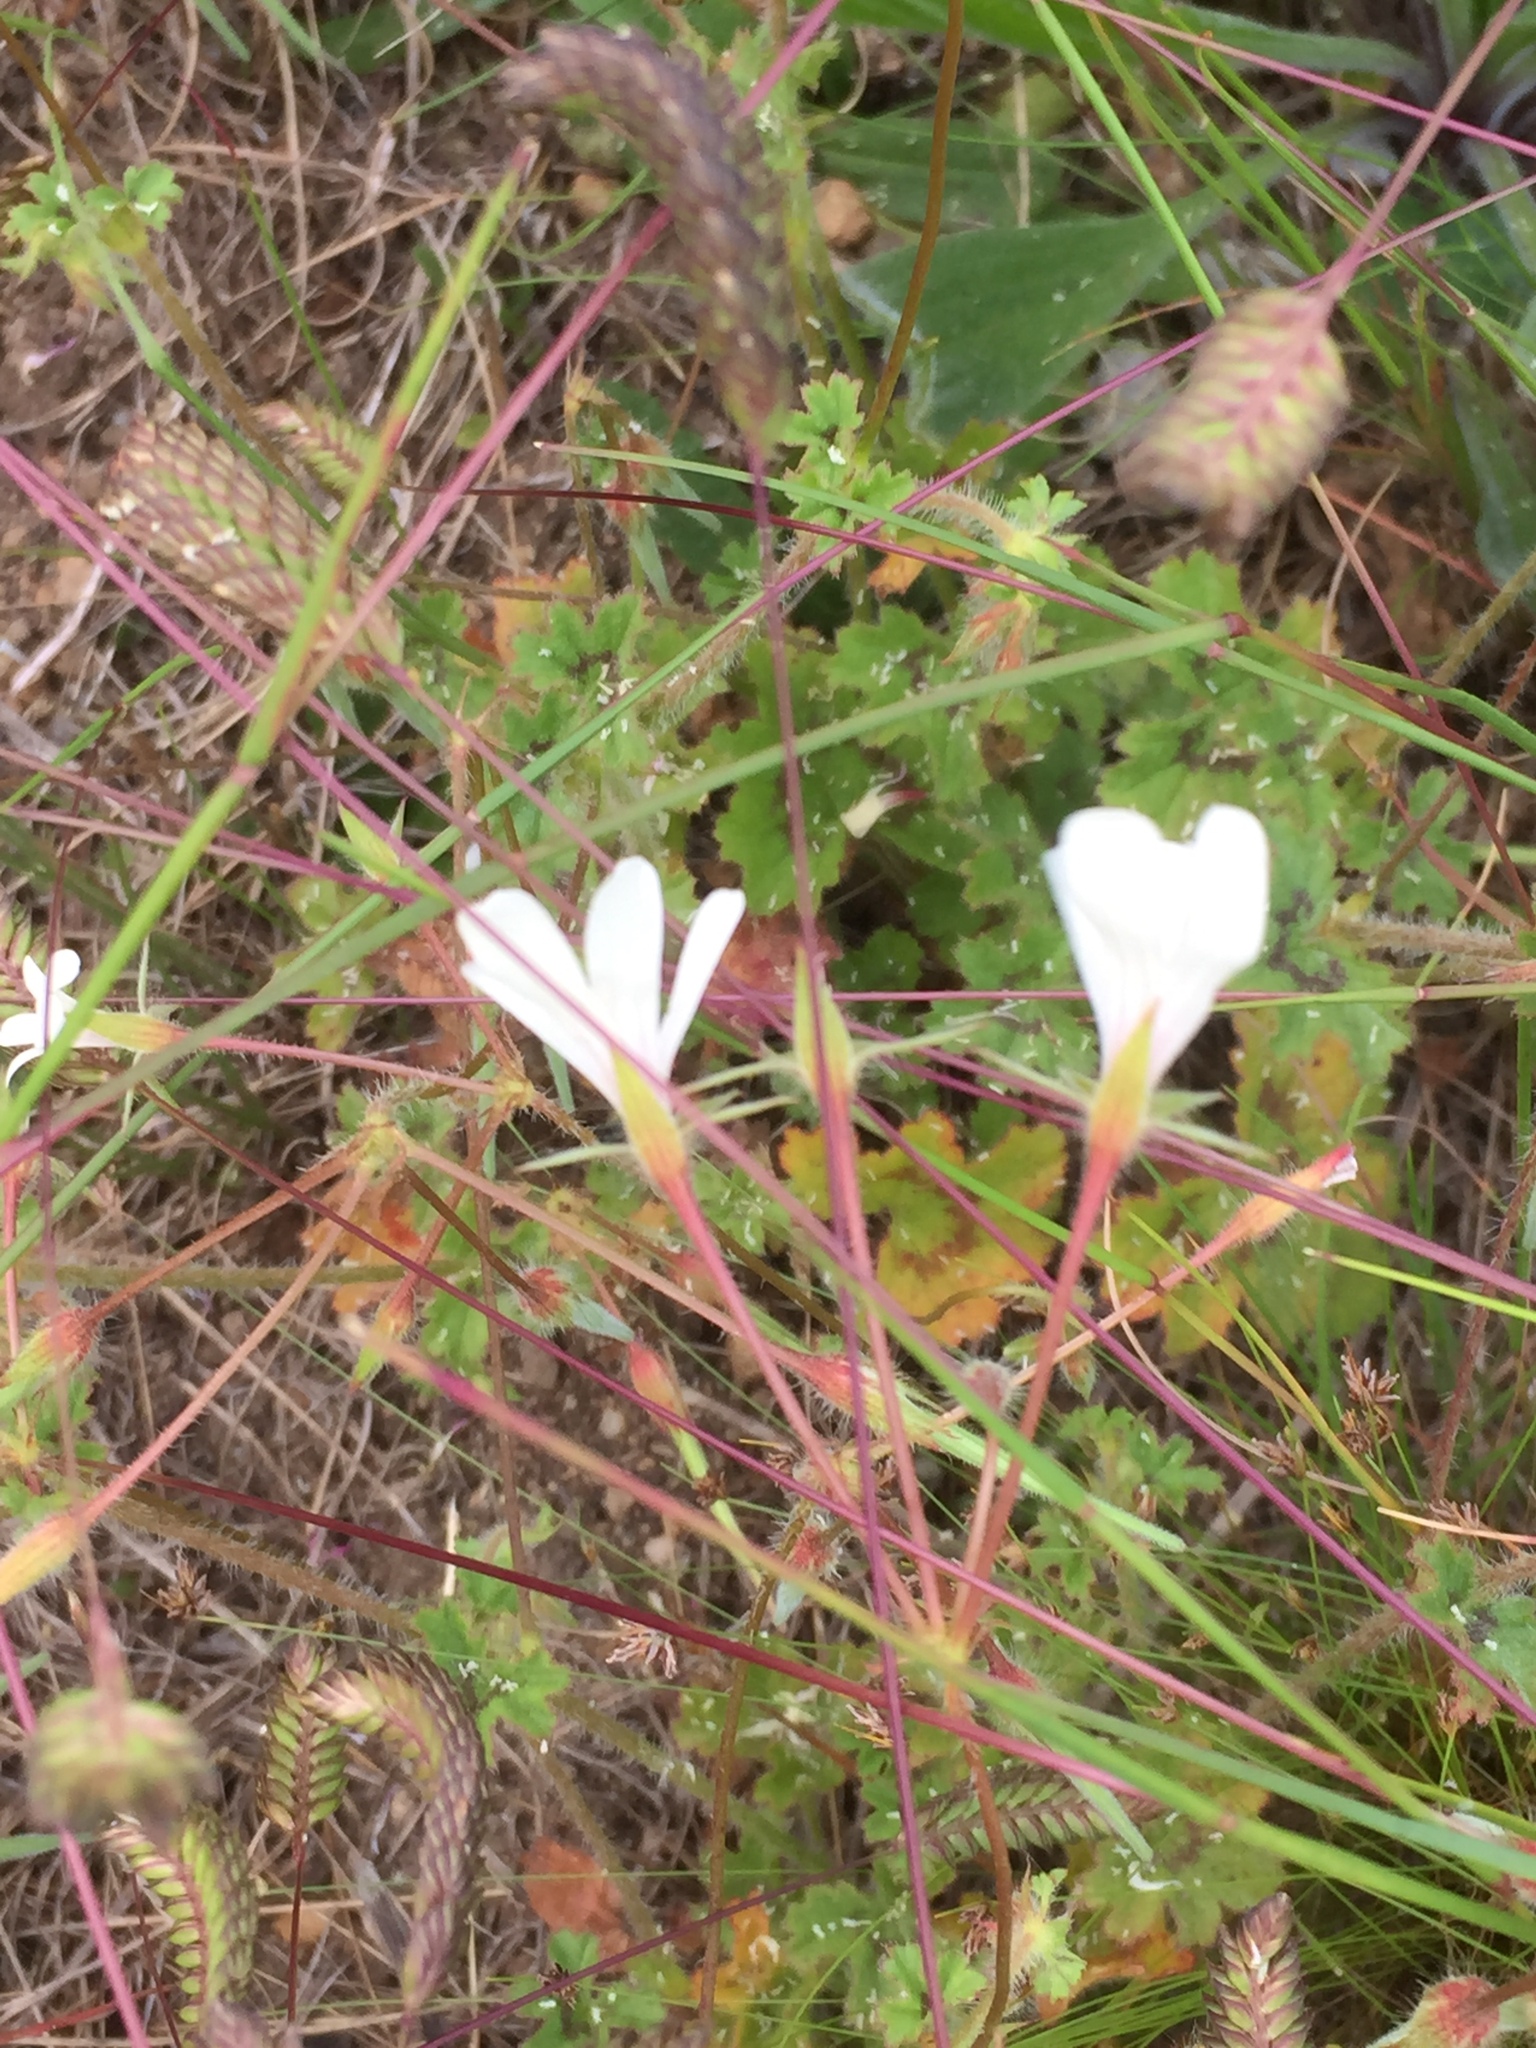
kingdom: Plantae
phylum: Tracheophyta
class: Magnoliopsida
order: Geraniales
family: Geraniaceae
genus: Pelargonium
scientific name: Pelargonium elongatum
